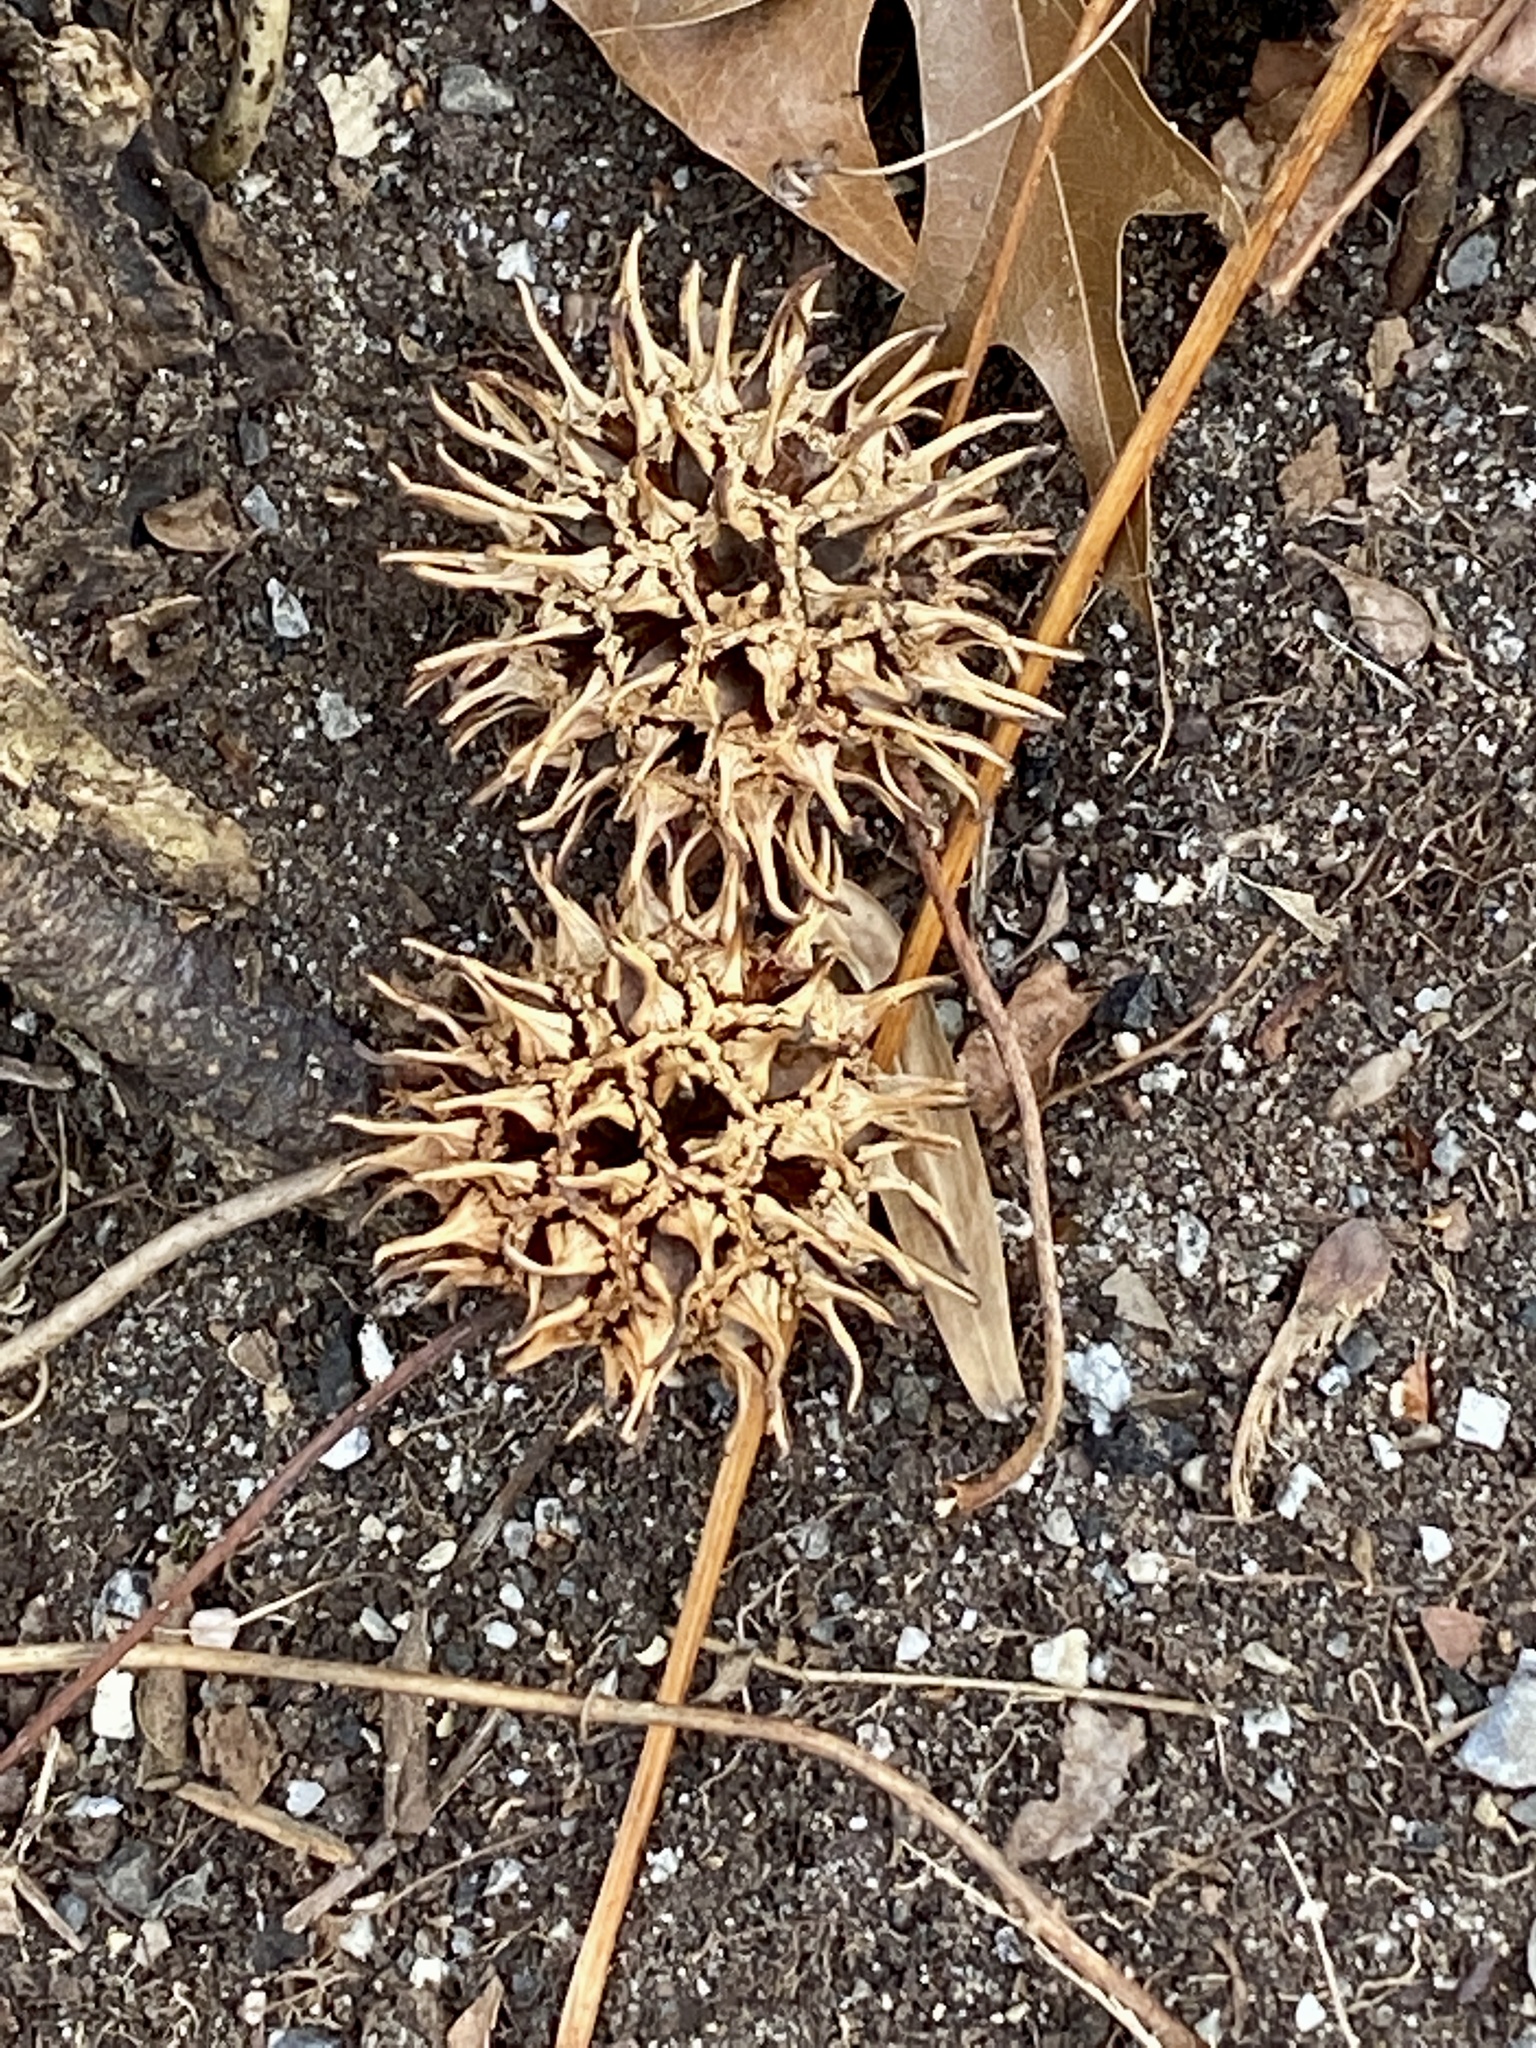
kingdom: Plantae
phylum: Tracheophyta
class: Magnoliopsida
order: Saxifragales
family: Altingiaceae
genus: Liquidambar
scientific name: Liquidambar styraciflua
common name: Sweet gum
